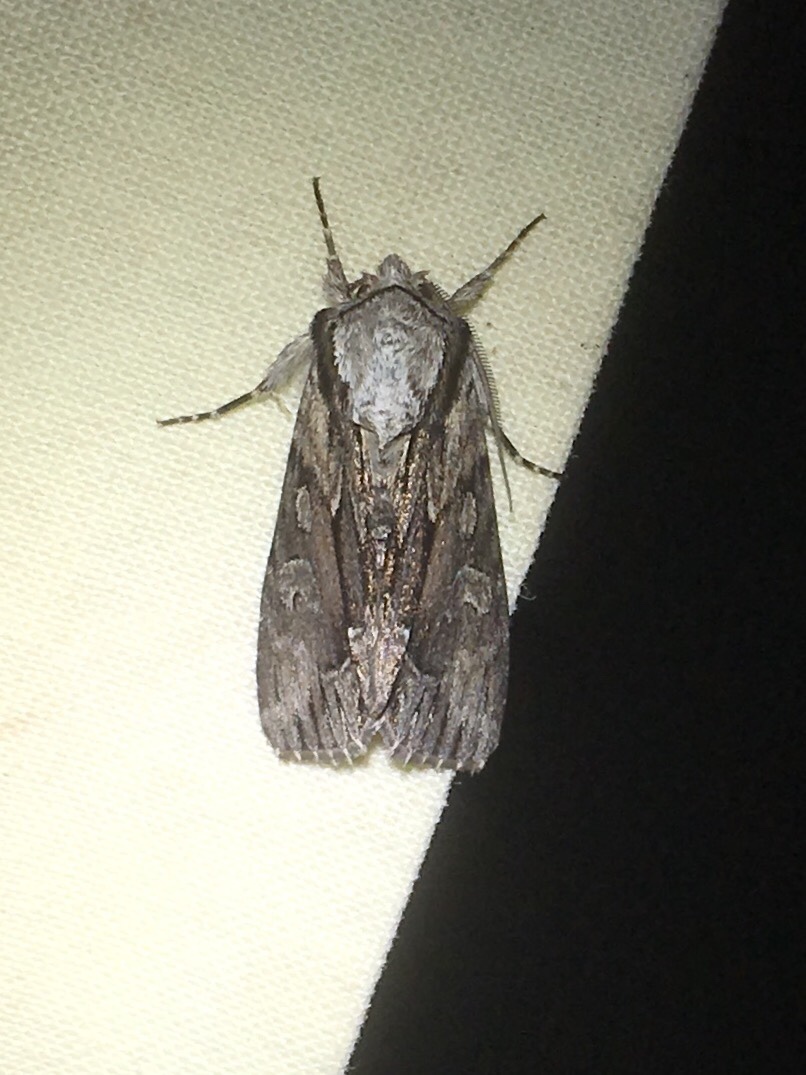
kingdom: Animalia
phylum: Arthropoda
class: Insecta
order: Lepidoptera
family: Noctuidae
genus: Hyppa
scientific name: Hyppa xylinoides
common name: Common hyppa moth
